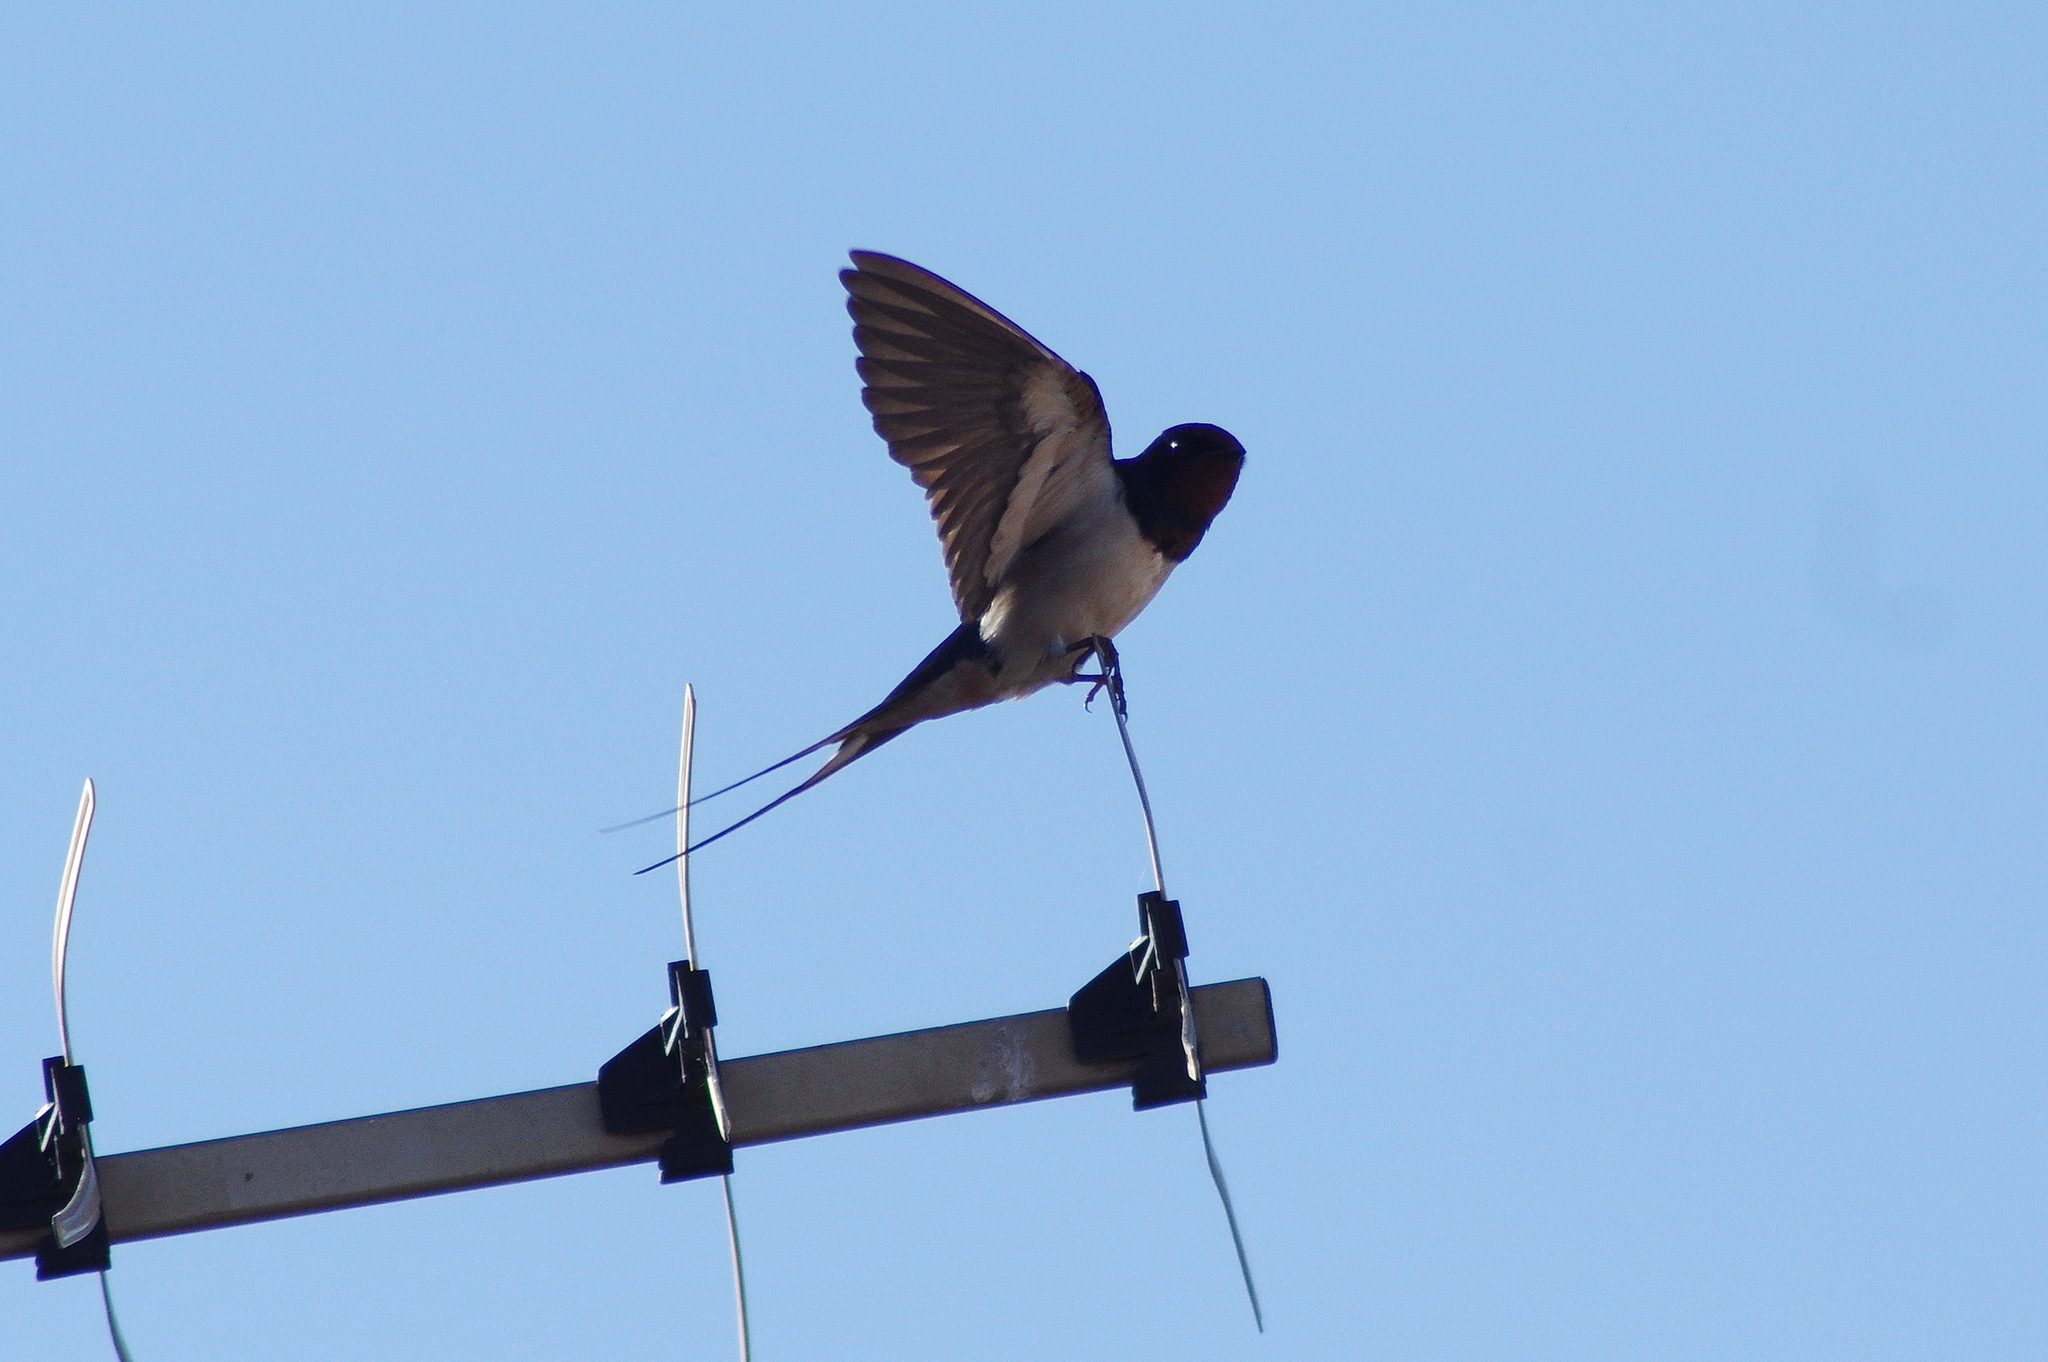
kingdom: Animalia
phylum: Chordata
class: Aves
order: Passeriformes
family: Hirundinidae
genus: Hirundo
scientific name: Hirundo rustica
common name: Barn swallow
